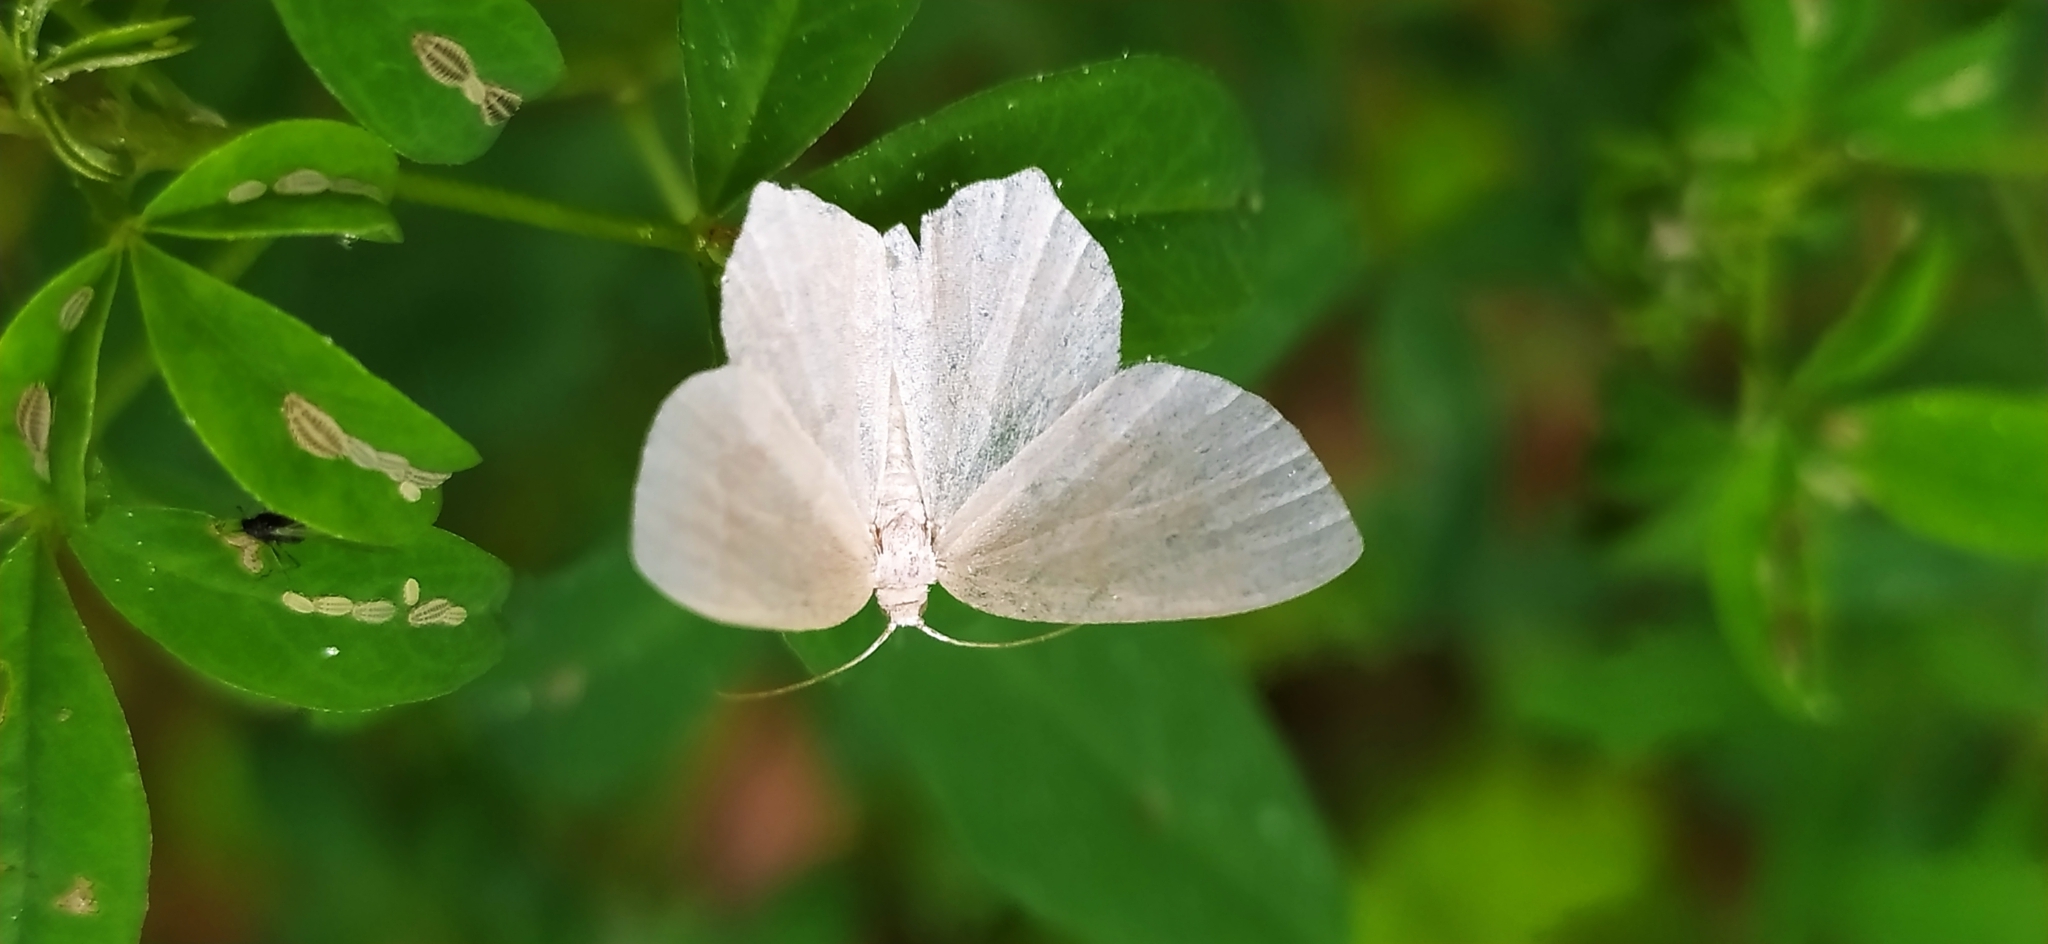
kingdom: Animalia
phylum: Arthropoda
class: Insecta
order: Lepidoptera
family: Geometridae
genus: Jodis
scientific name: Jodis putata
